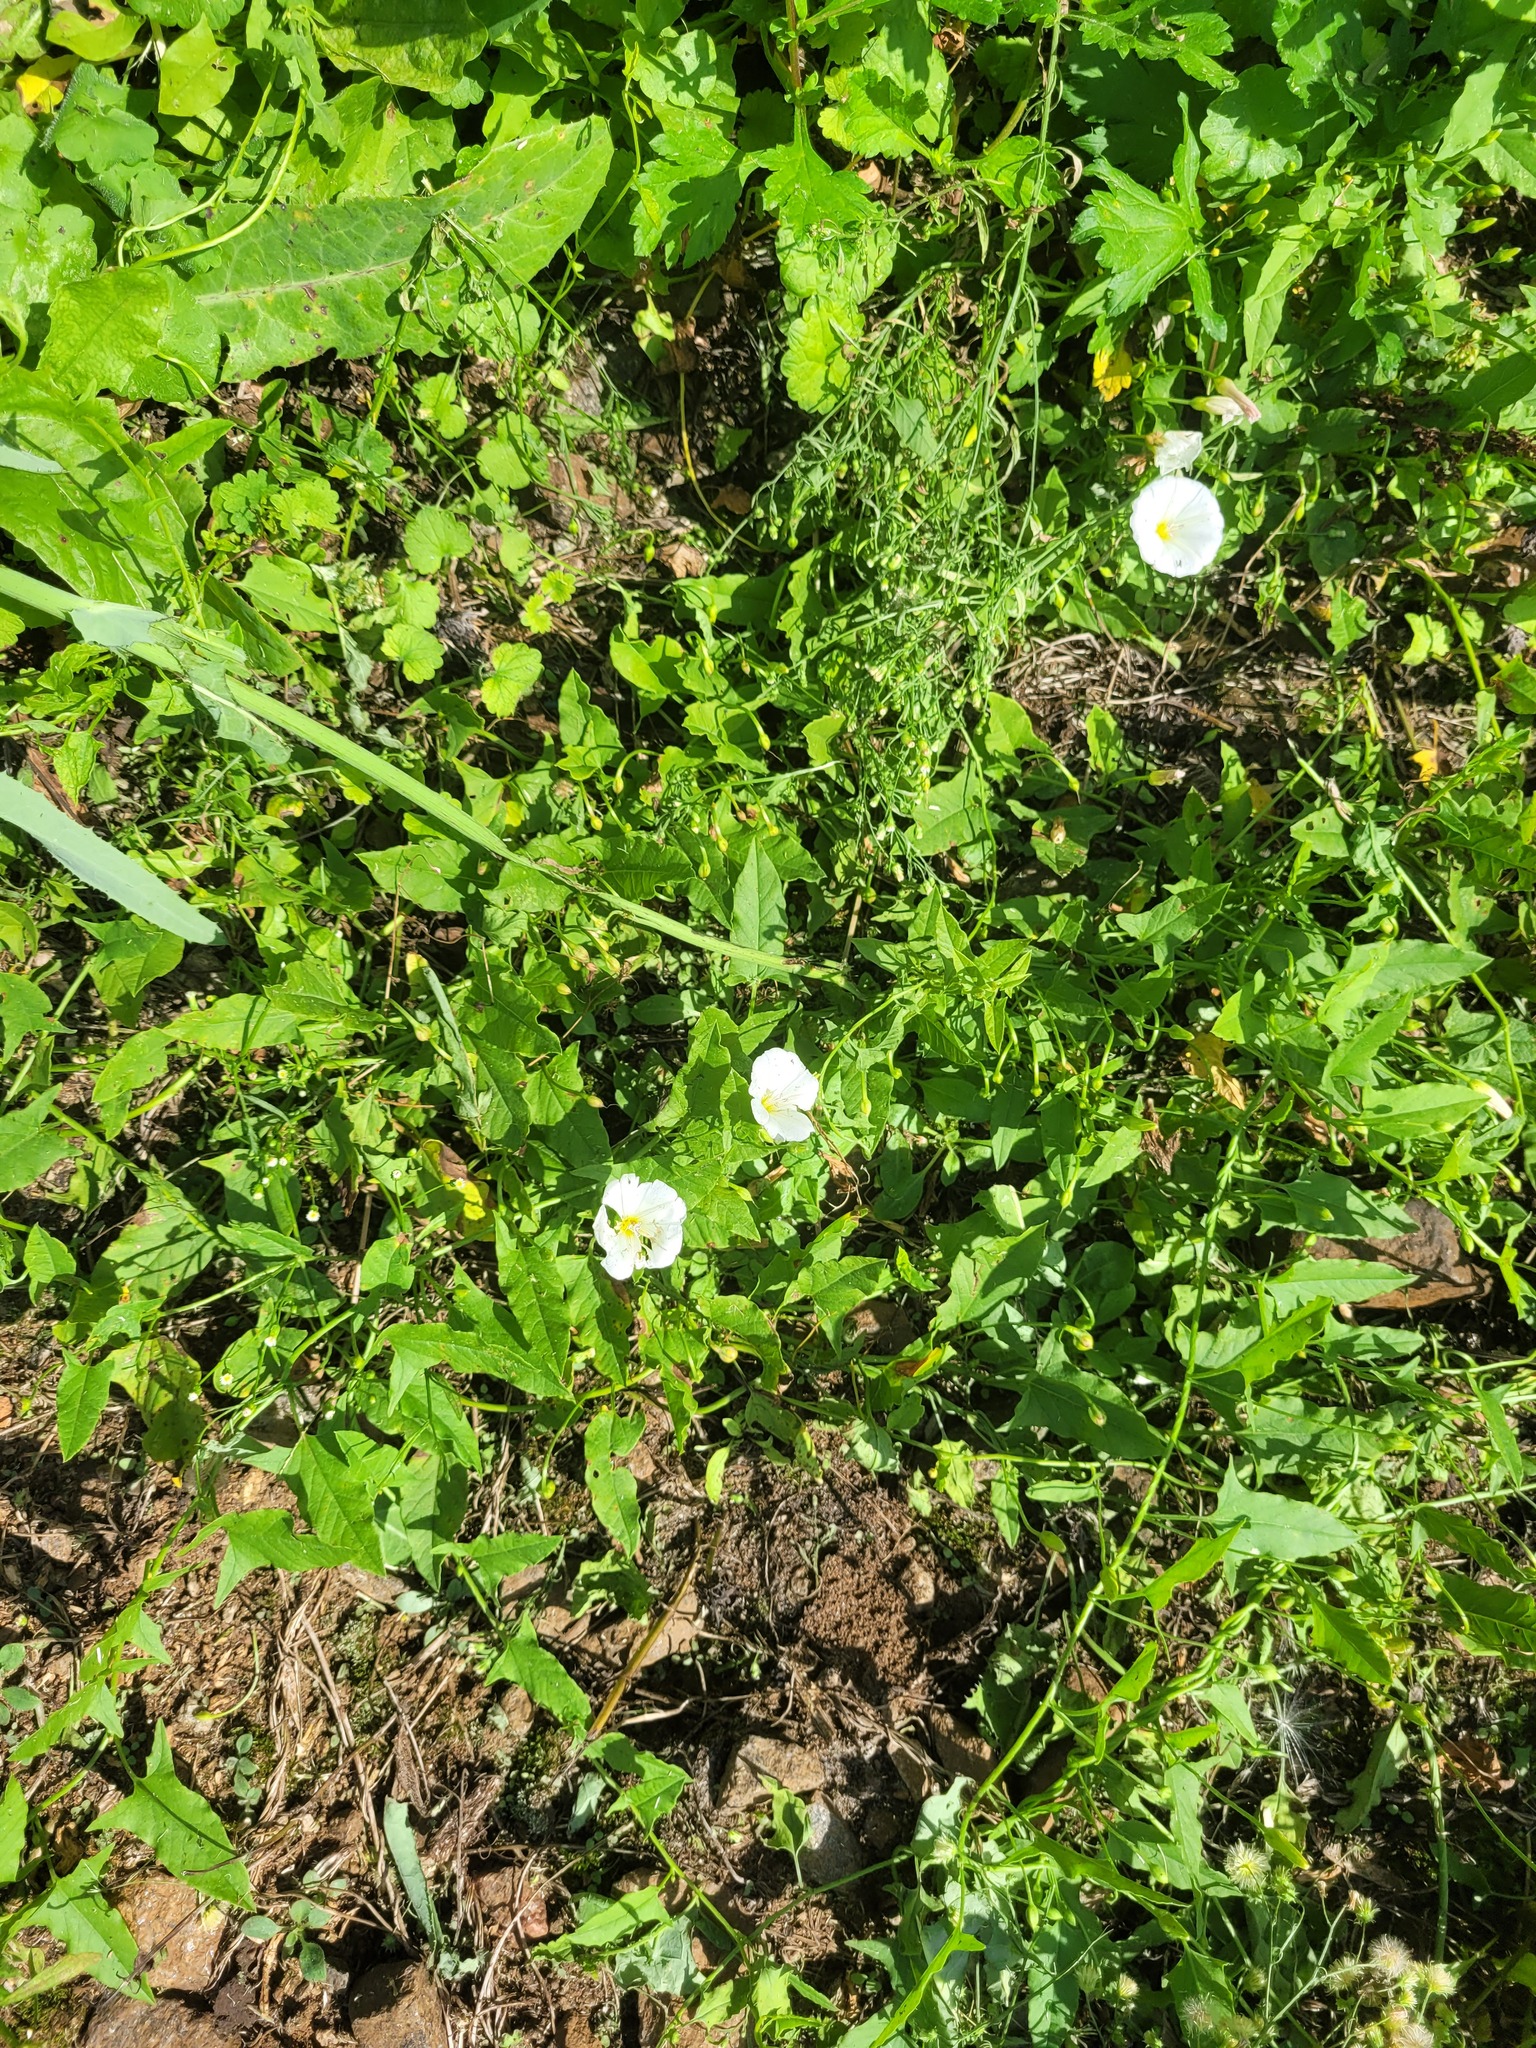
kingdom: Plantae
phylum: Tracheophyta
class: Magnoliopsida
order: Solanales
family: Convolvulaceae
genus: Convolvulus
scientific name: Convolvulus arvensis
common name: Field bindweed
